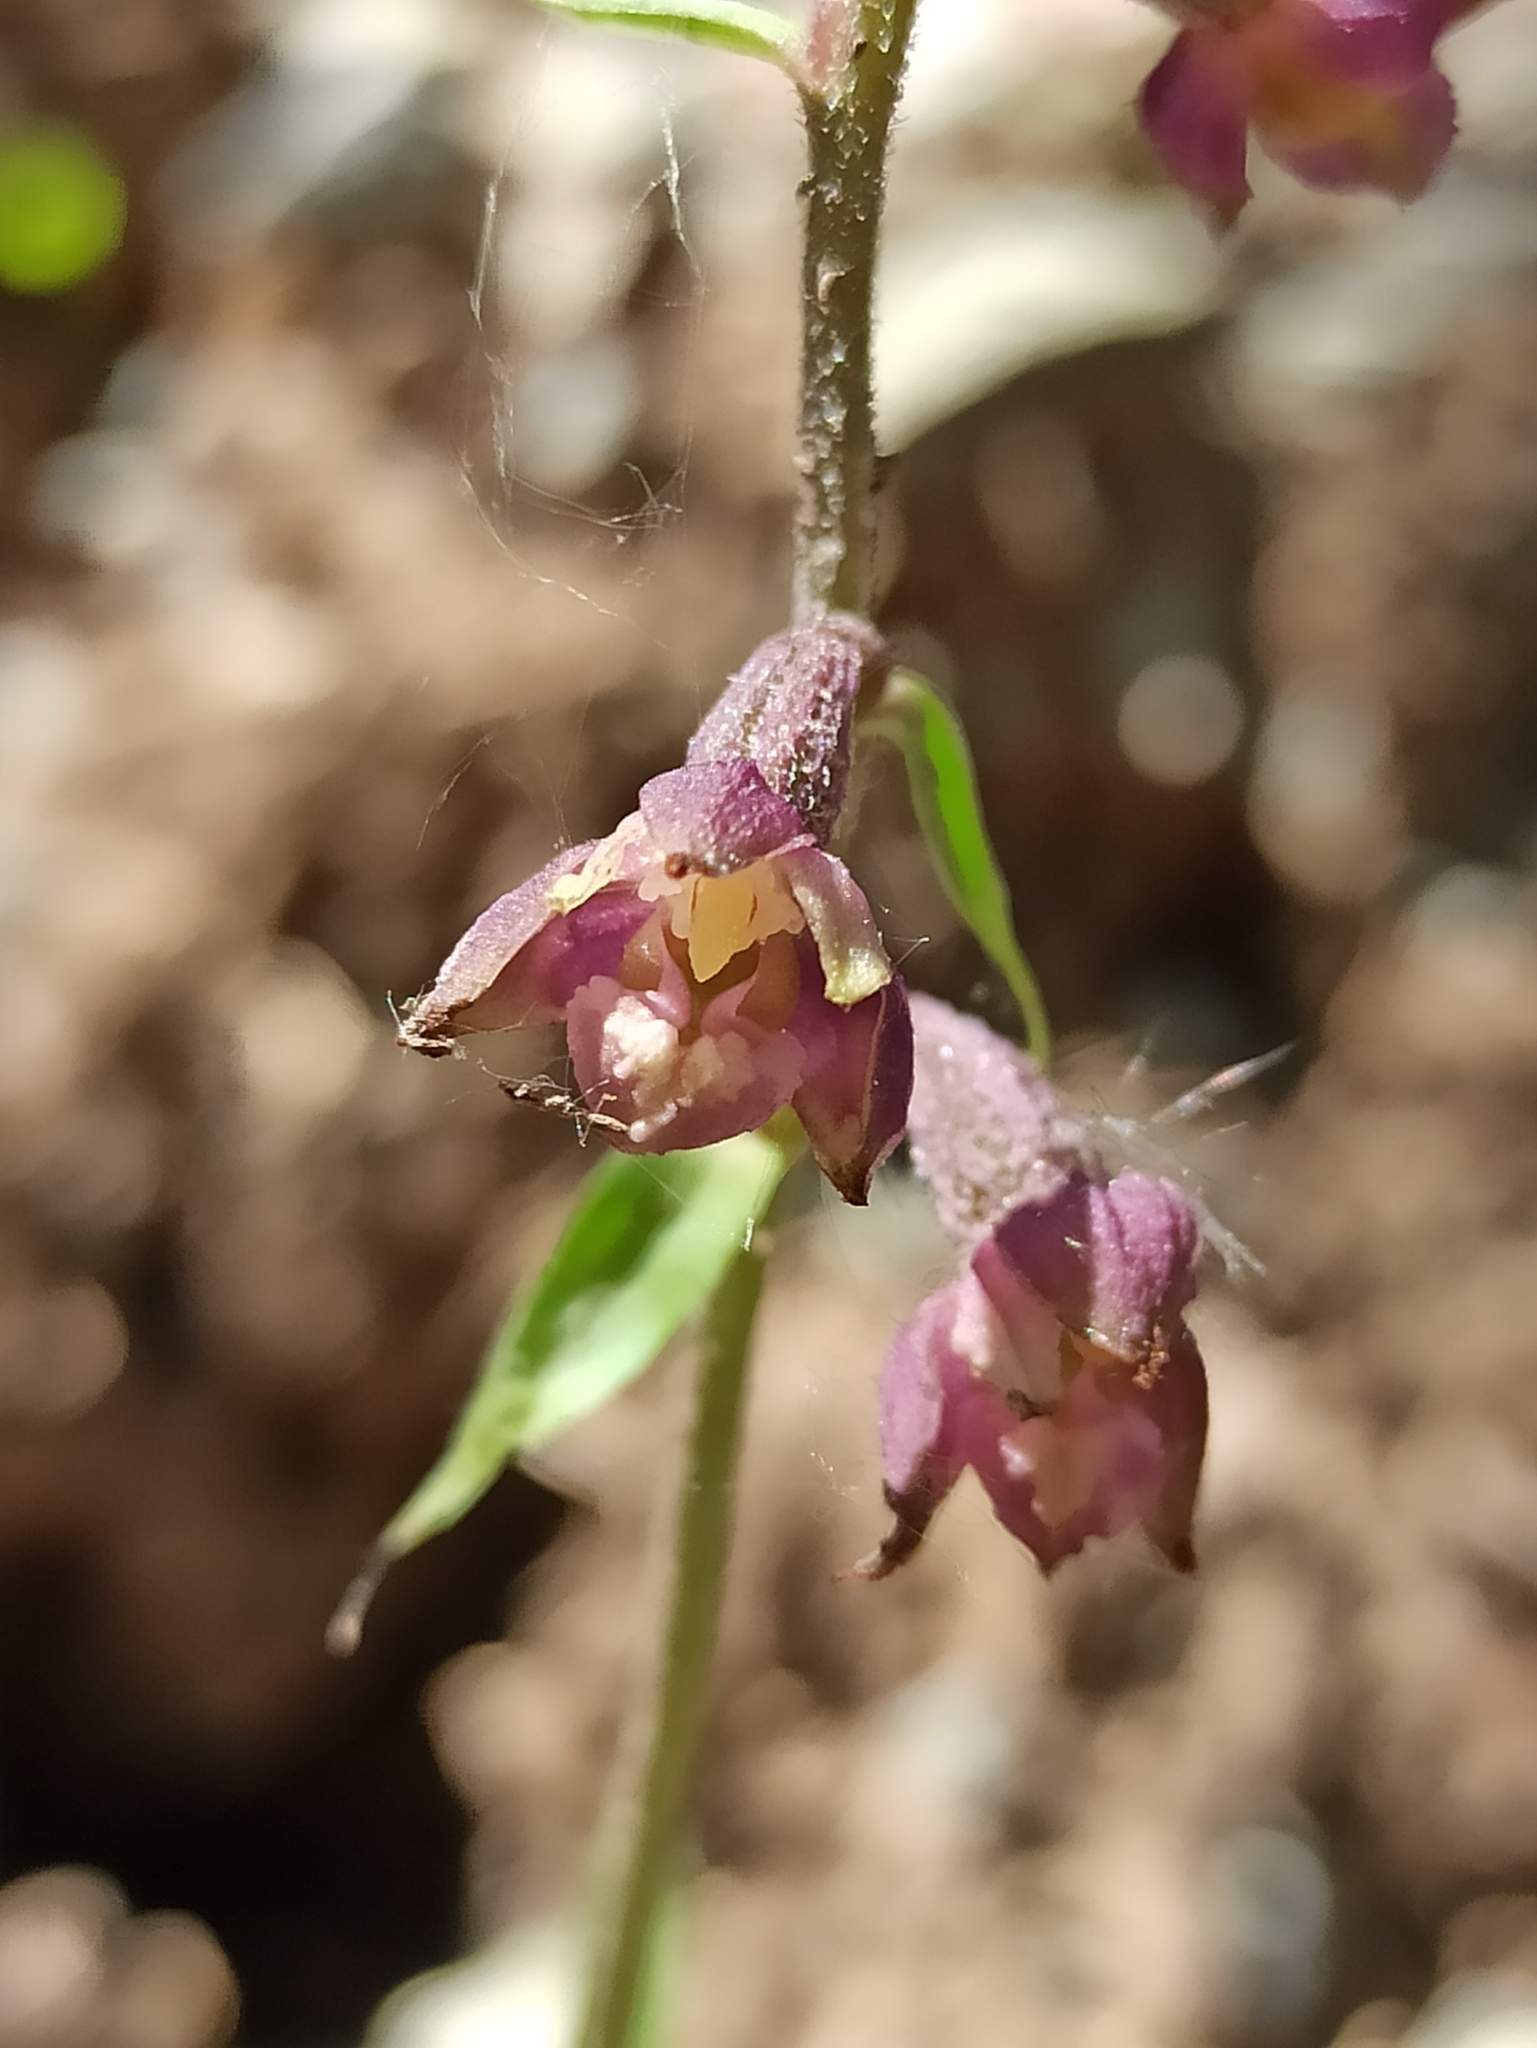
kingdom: Plantae
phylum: Tracheophyta
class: Liliopsida
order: Asparagales
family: Orchidaceae
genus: Epipactis
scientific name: Epipactis atrorubens
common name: Dark-red helleborine
